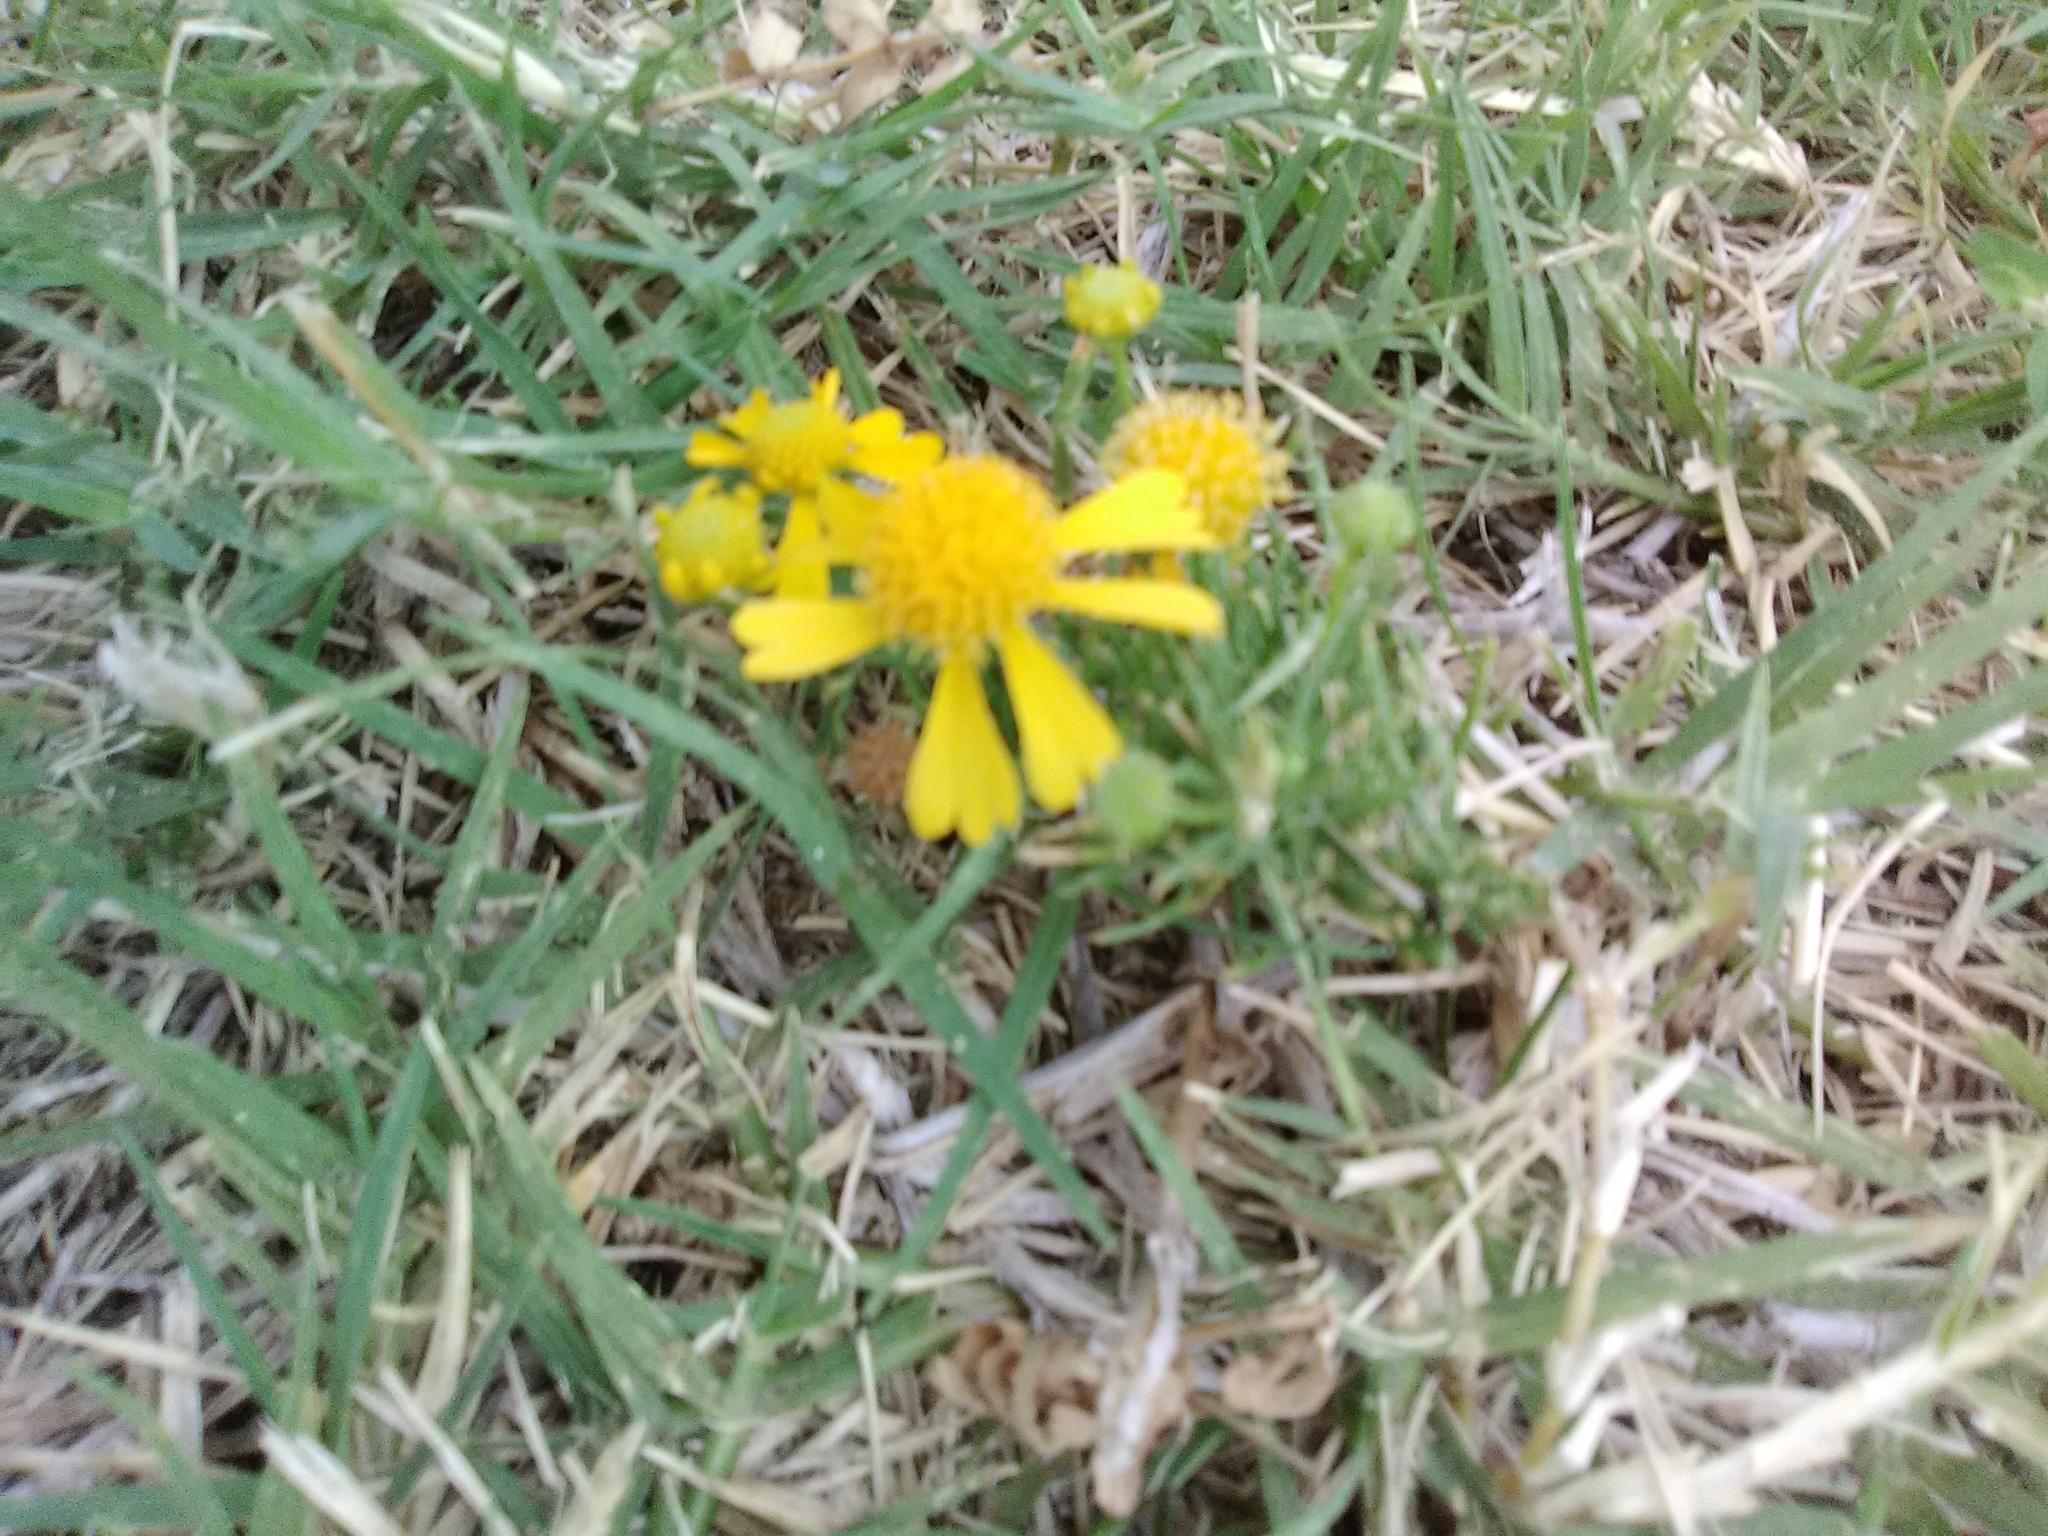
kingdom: Plantae
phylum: Tracheophyta
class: Magnoliopsida
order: Asterales
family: Asteraceae
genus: Helenium
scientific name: Helenium amarum
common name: Bitter sneezeweed
